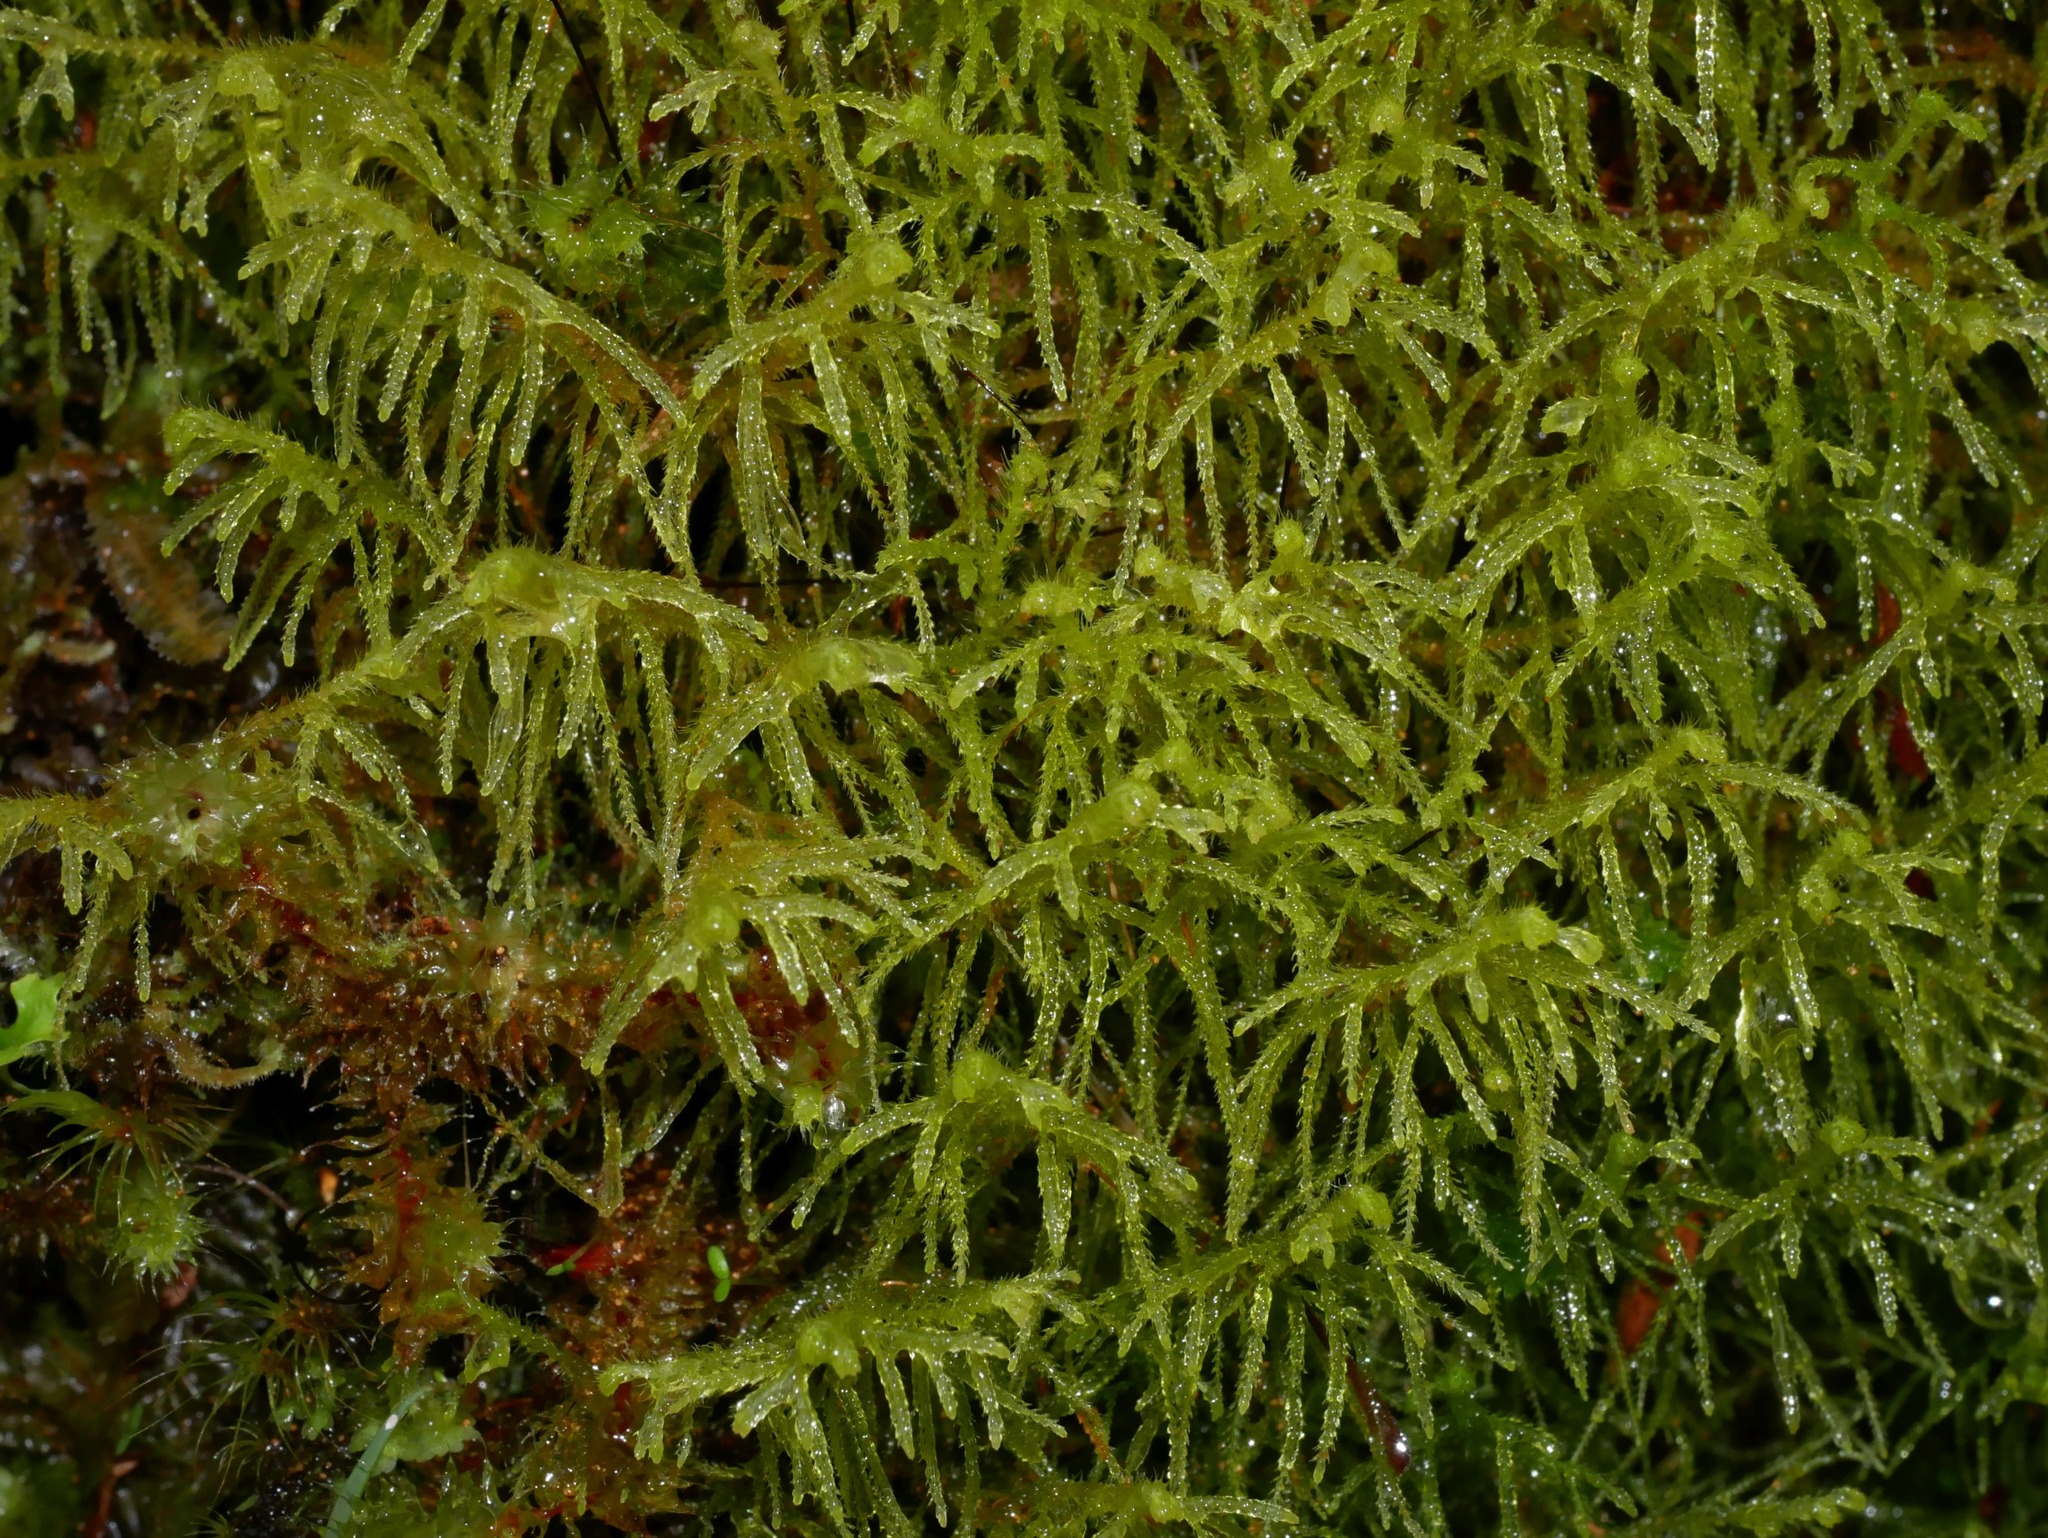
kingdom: Plantae
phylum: Marchantiophyta
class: Jungermanniopsida
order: Jungermanniales
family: Lepidoziaceae
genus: Lepidozia
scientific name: Lepidozia spinosissima
